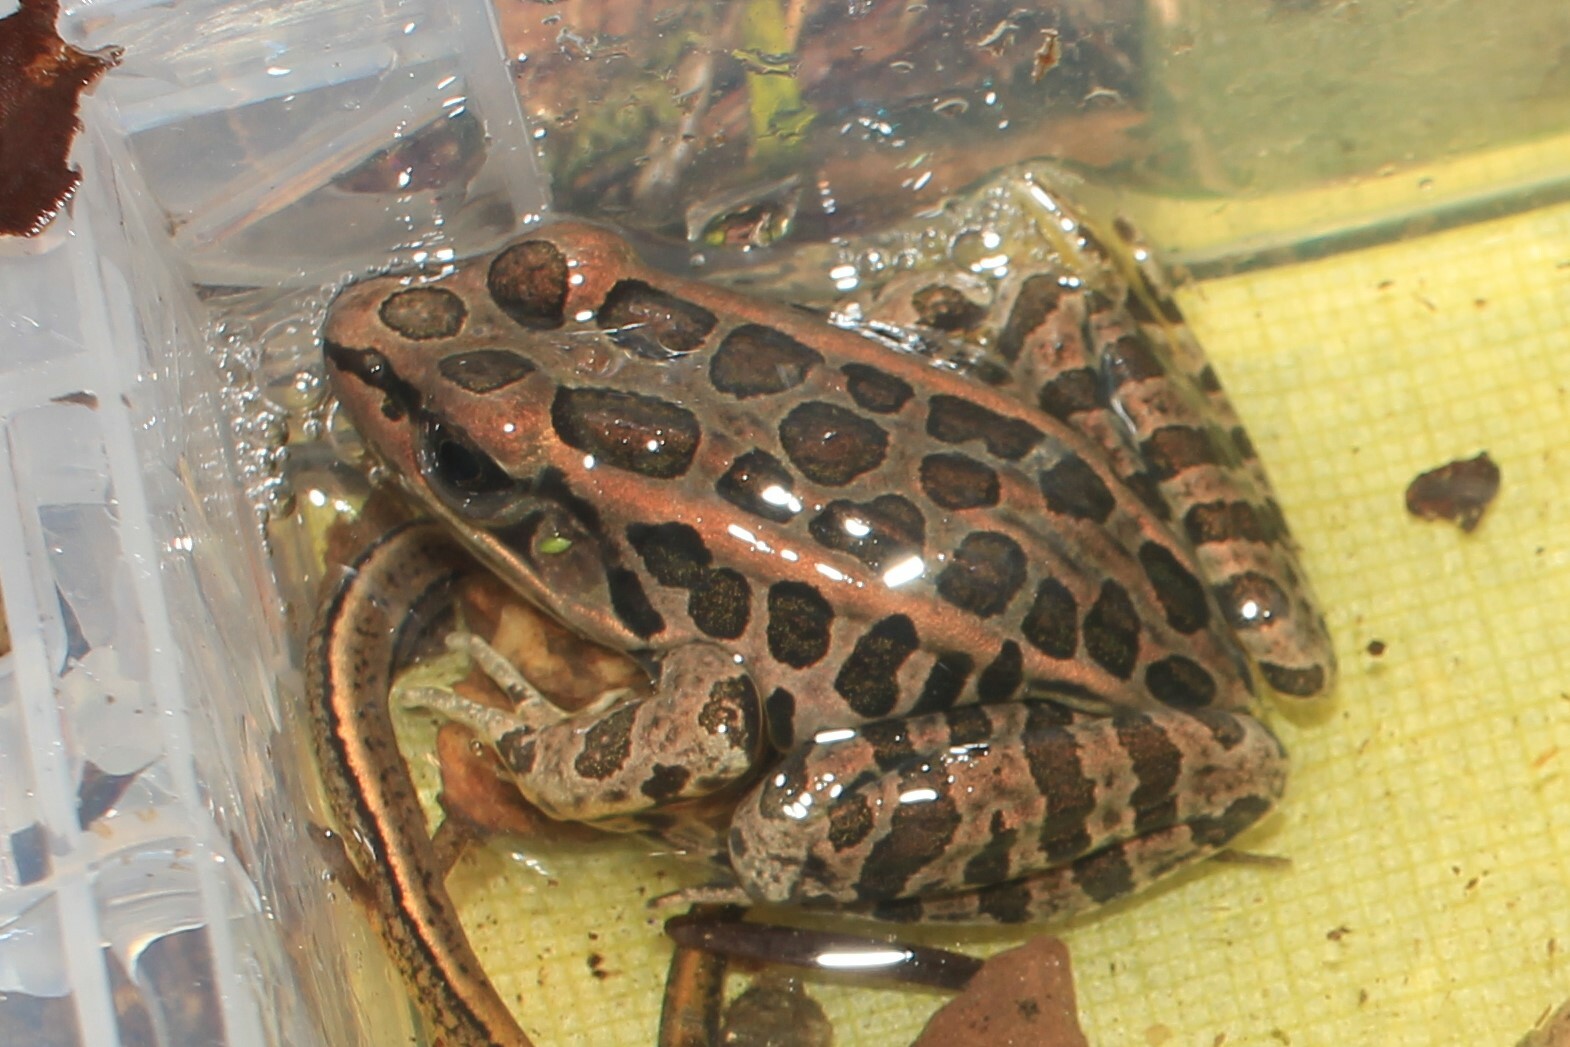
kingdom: Animalia
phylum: Chordata
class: Amphibia
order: Anura
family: Ranidae
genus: Lithobates
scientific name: Lithobates palustris
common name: Pickerel frog
